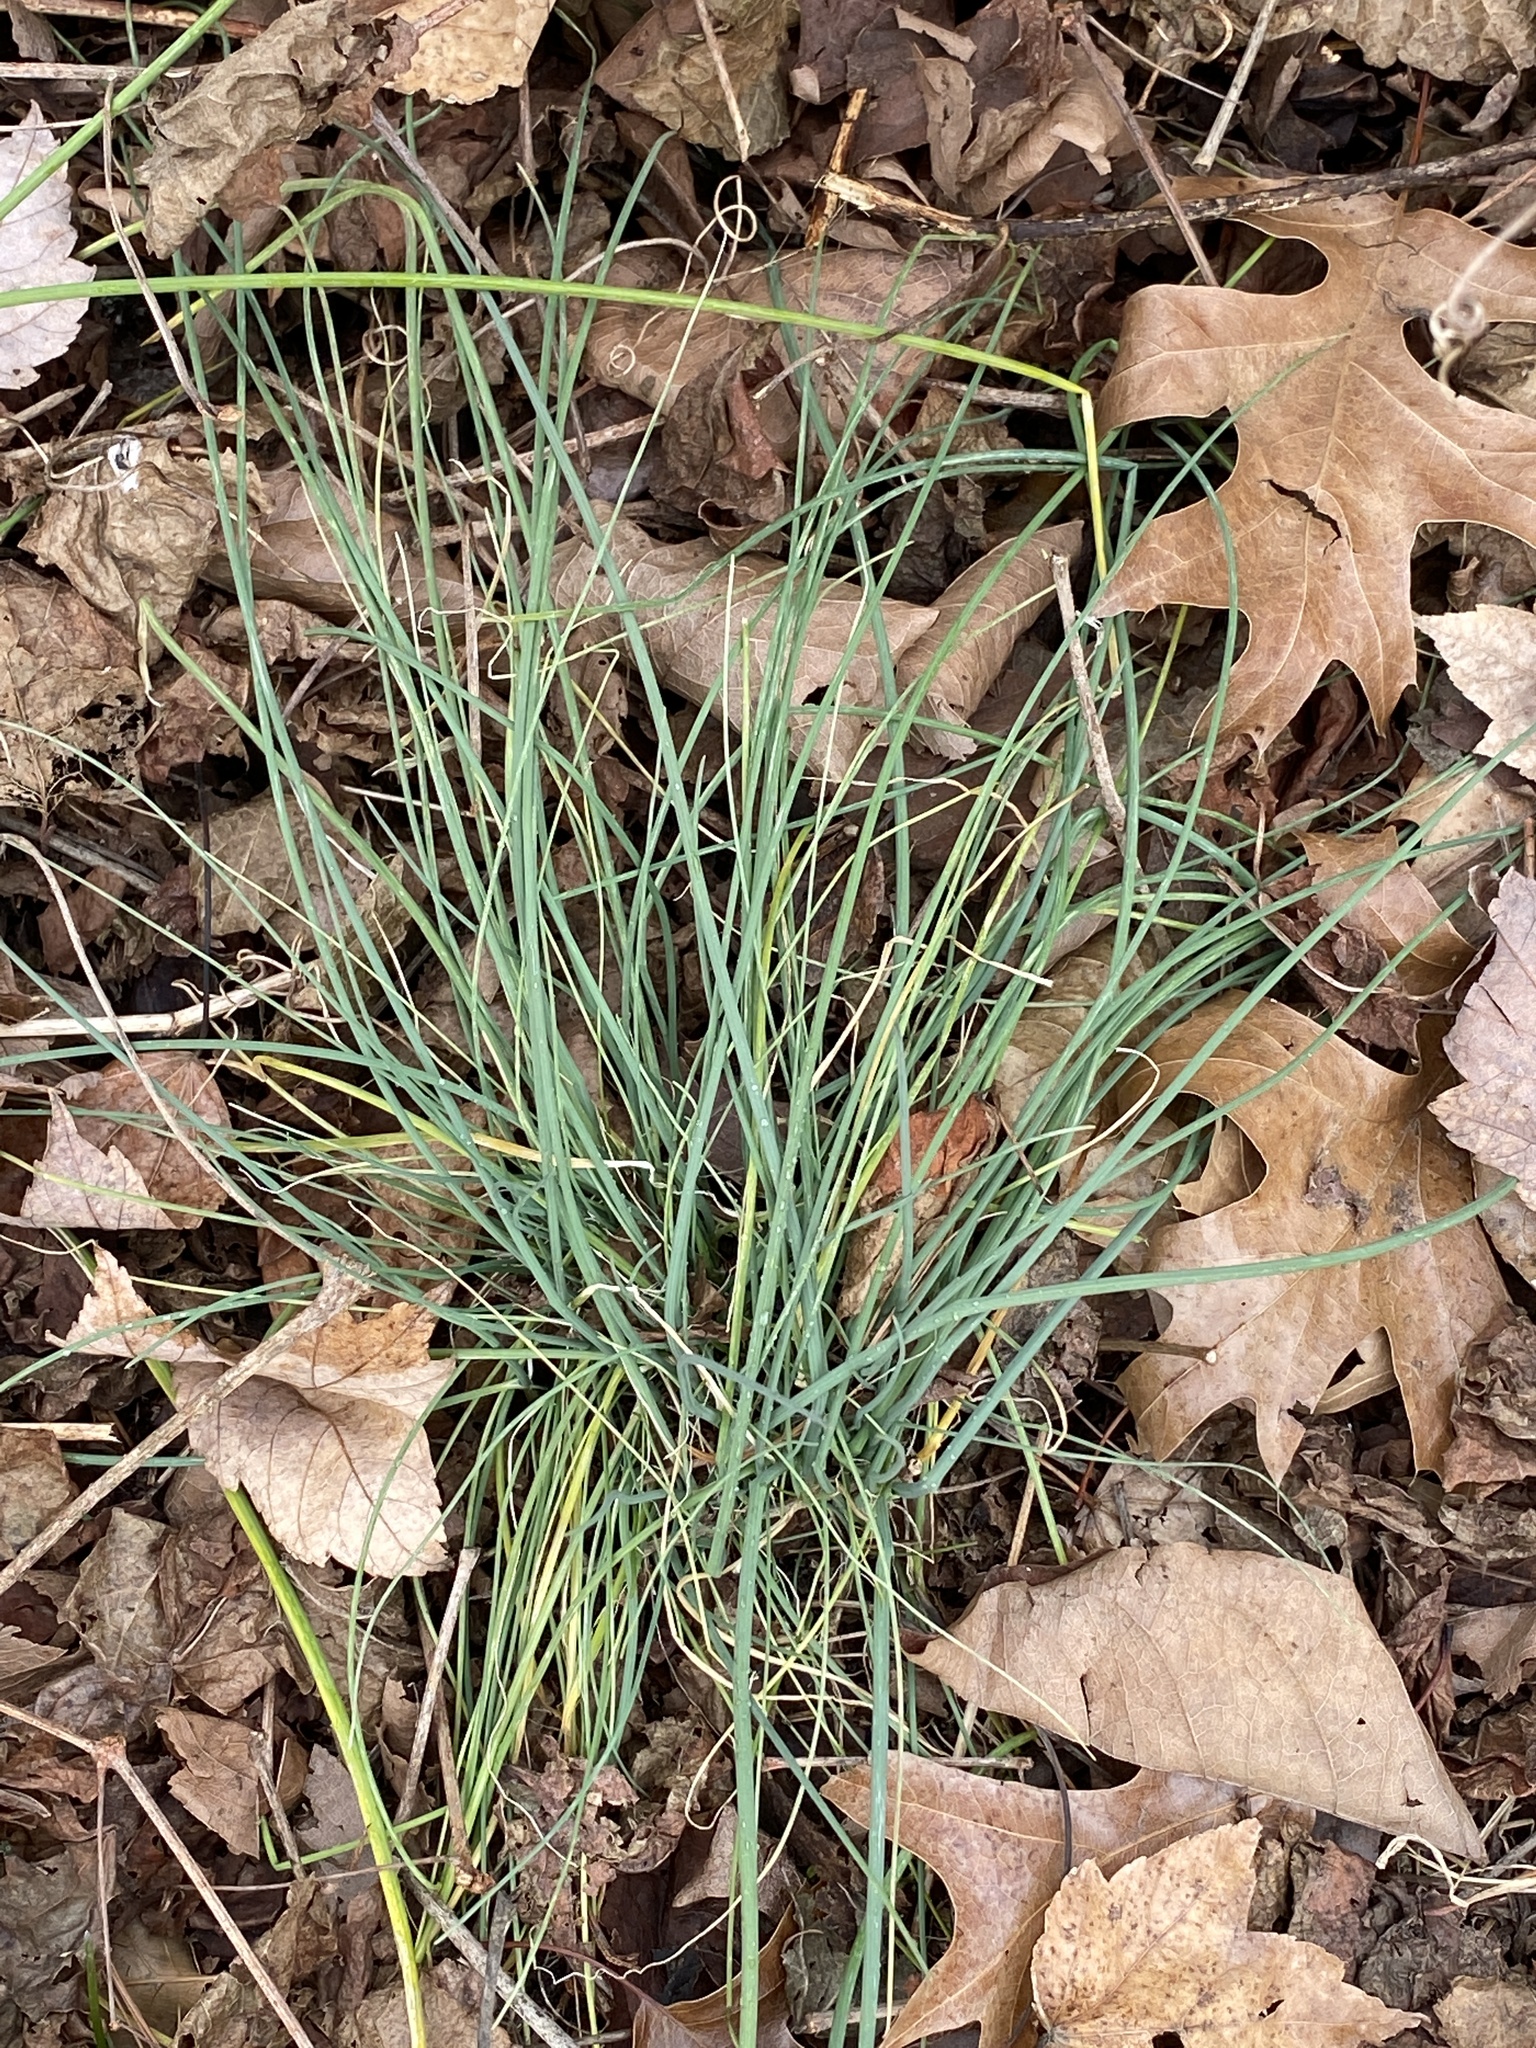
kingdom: Plantae
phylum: Tracheophyta
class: Liliopsida
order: Asparagales
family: Amaryllidaceae
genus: Allium
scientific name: Allium vineale
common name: Crow garlic
